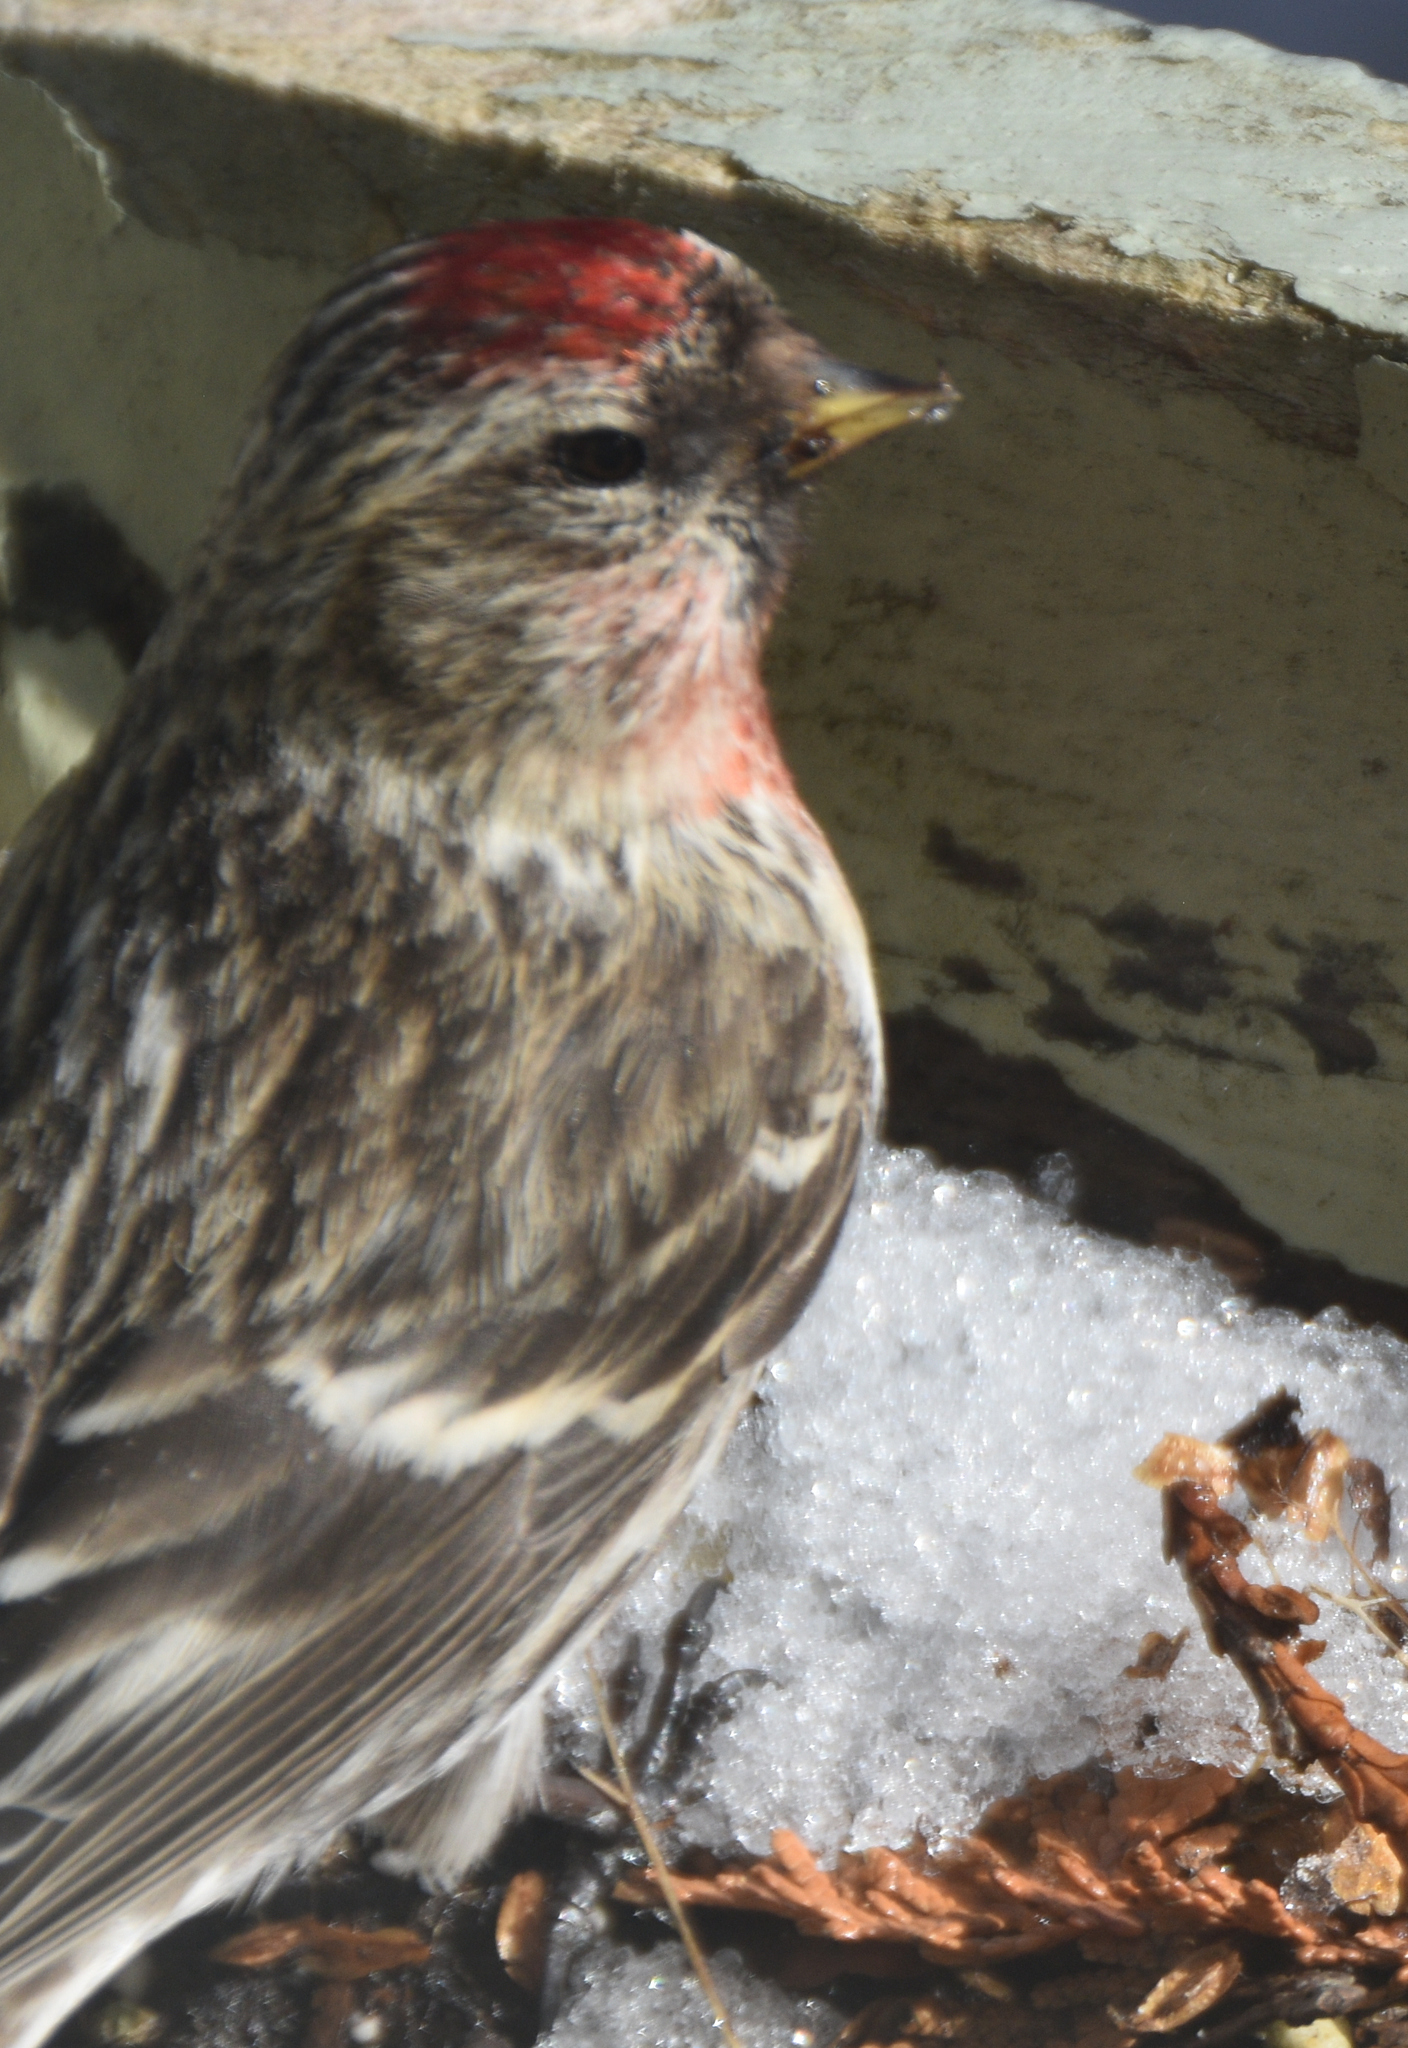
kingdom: Animalia
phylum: Chordata
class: Aves
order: Passeriformes
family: Fringillidae
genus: Acanthis
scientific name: Acanthis flammea
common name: Common redpoll
